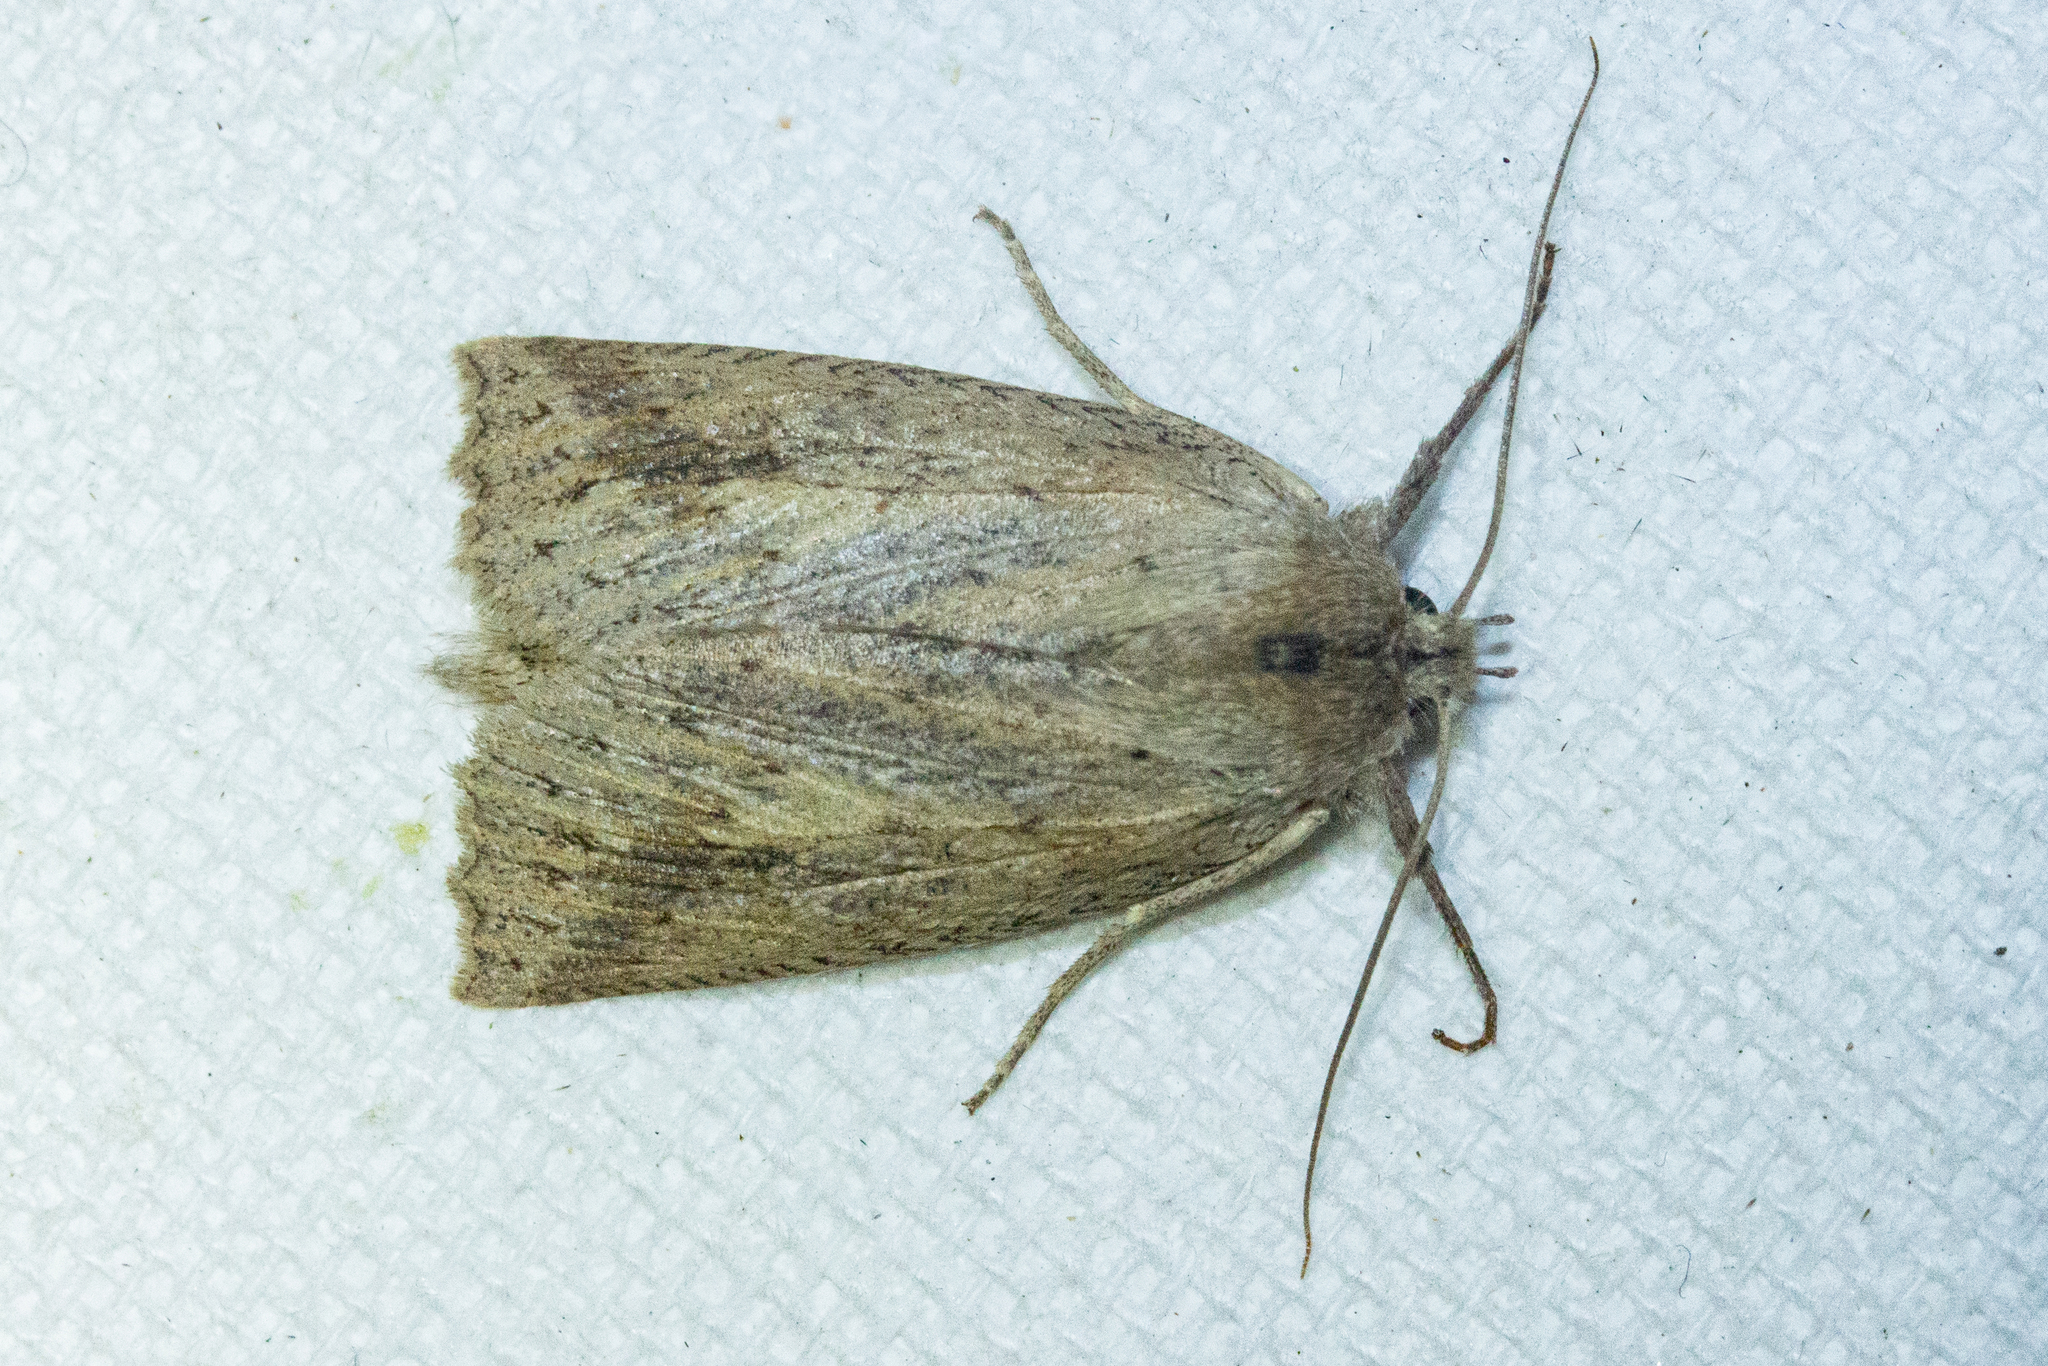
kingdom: Animalia
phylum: Arthropoda
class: Insecta
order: Lepidoptera
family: Geometridae
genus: Declana
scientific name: Declana leptomera
